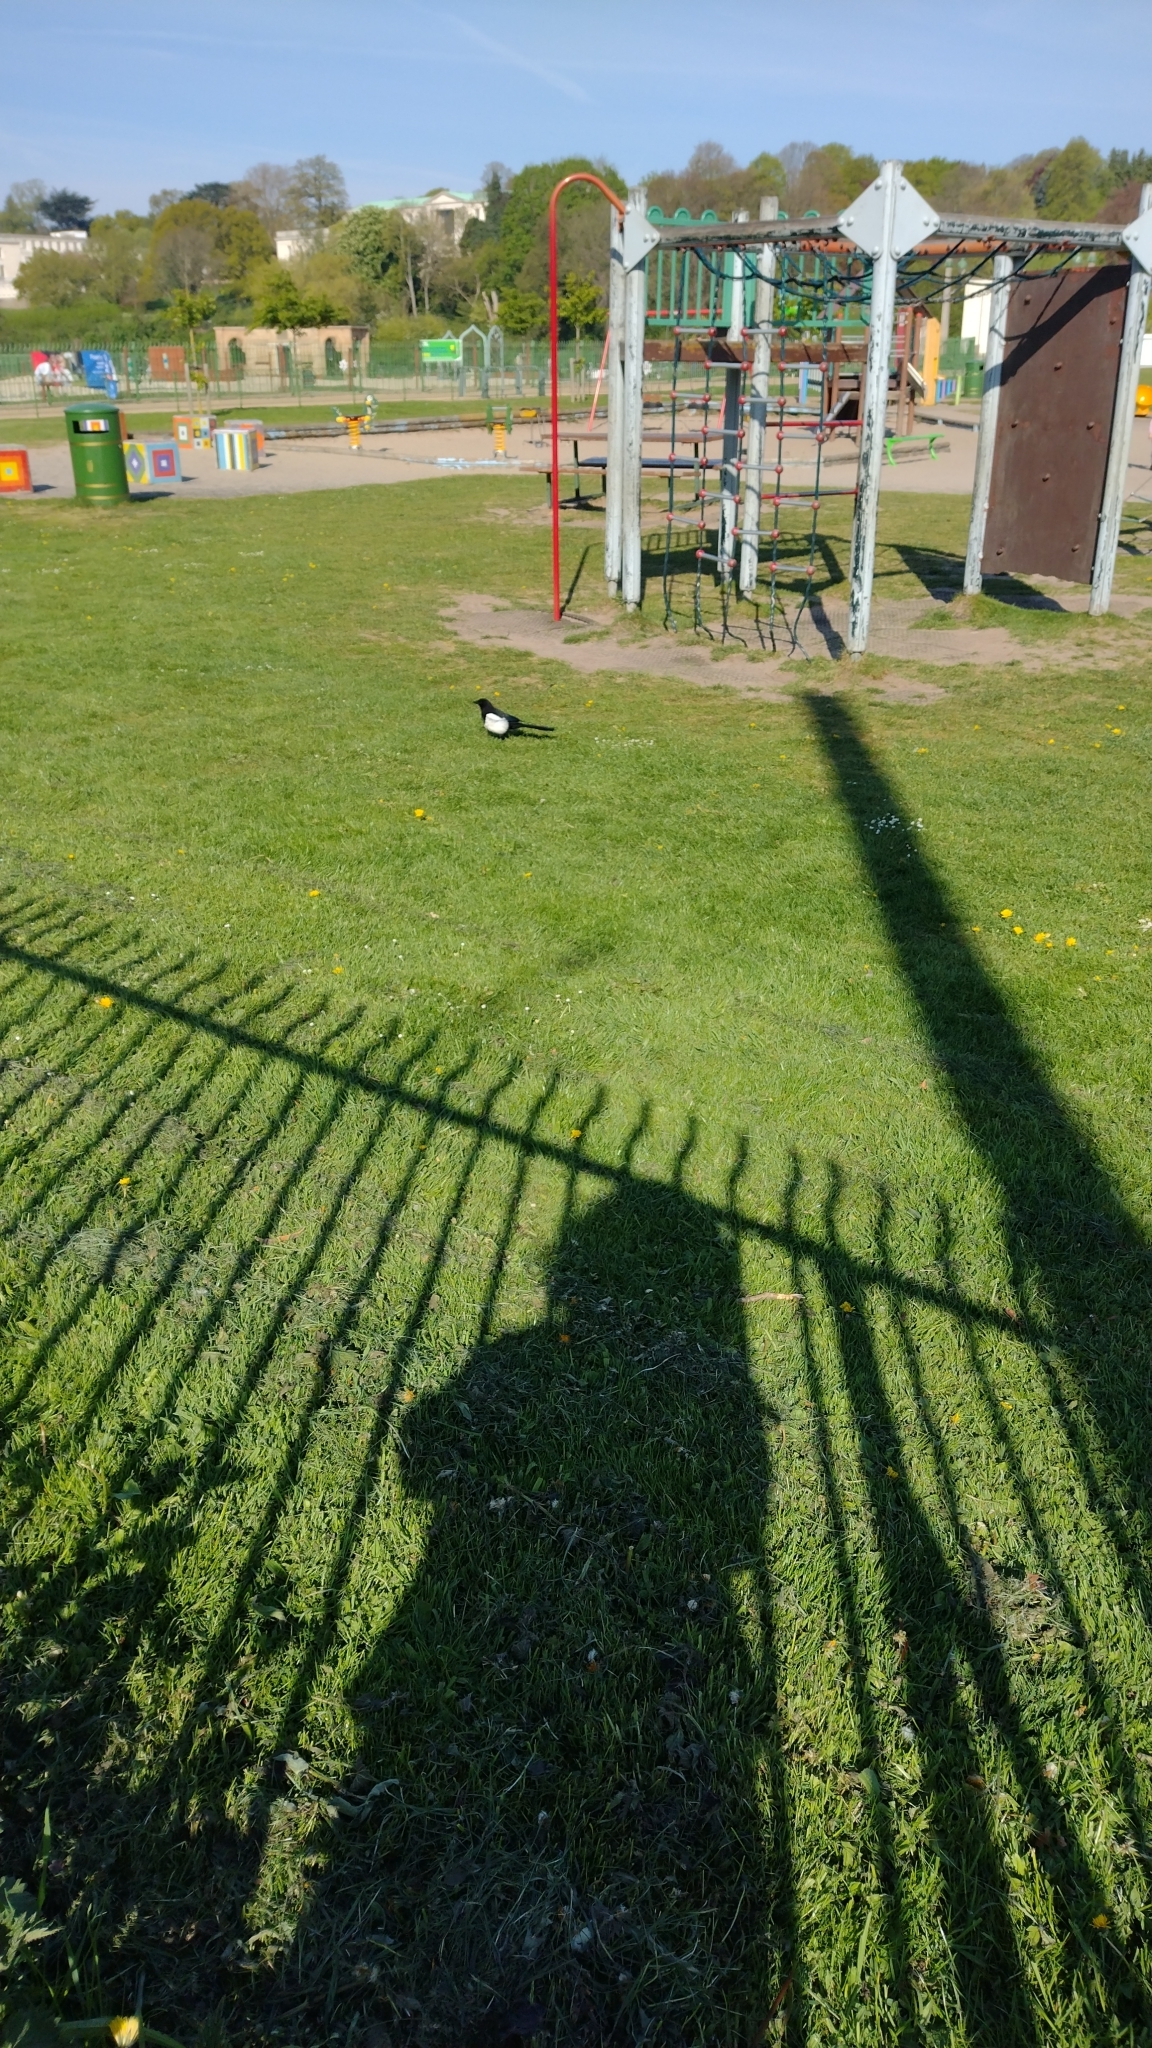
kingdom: Animalia
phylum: Chordata
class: Aves
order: Passeriformes
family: Corvidae
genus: Pica
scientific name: Pica pica
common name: Eurasian magpie
